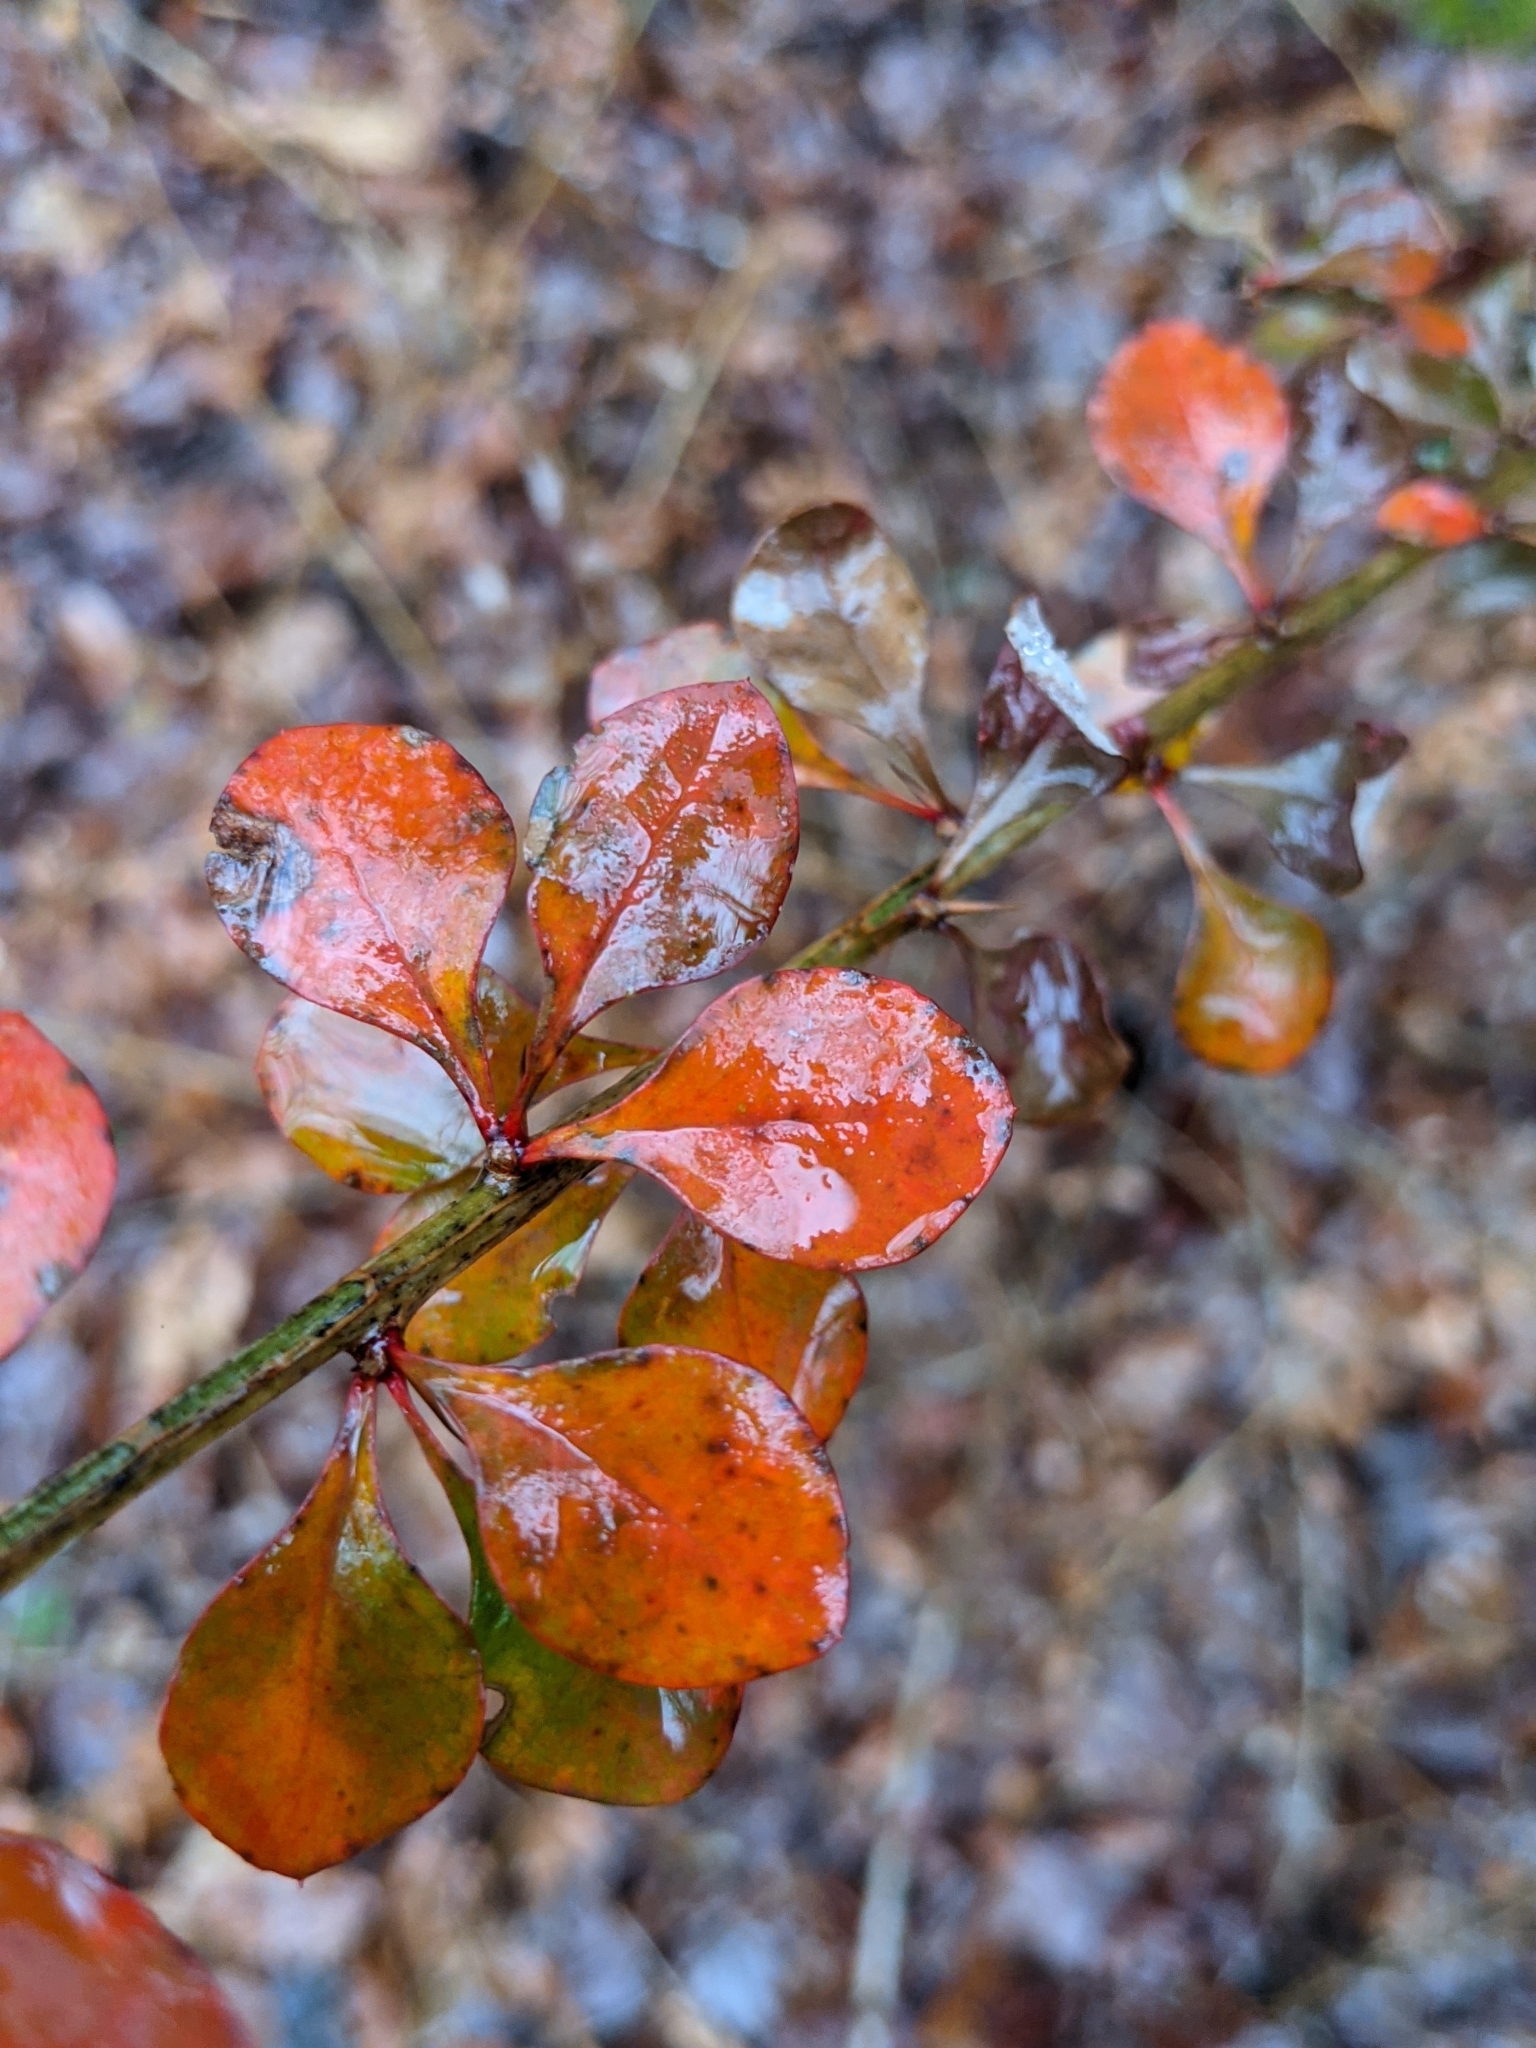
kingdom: Plantae
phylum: Tracheophyta
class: Magnoliopsida
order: Ranunculales
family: Berberidaceae
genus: Berberis
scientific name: Berberis thunbergii
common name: Japanese barberry
